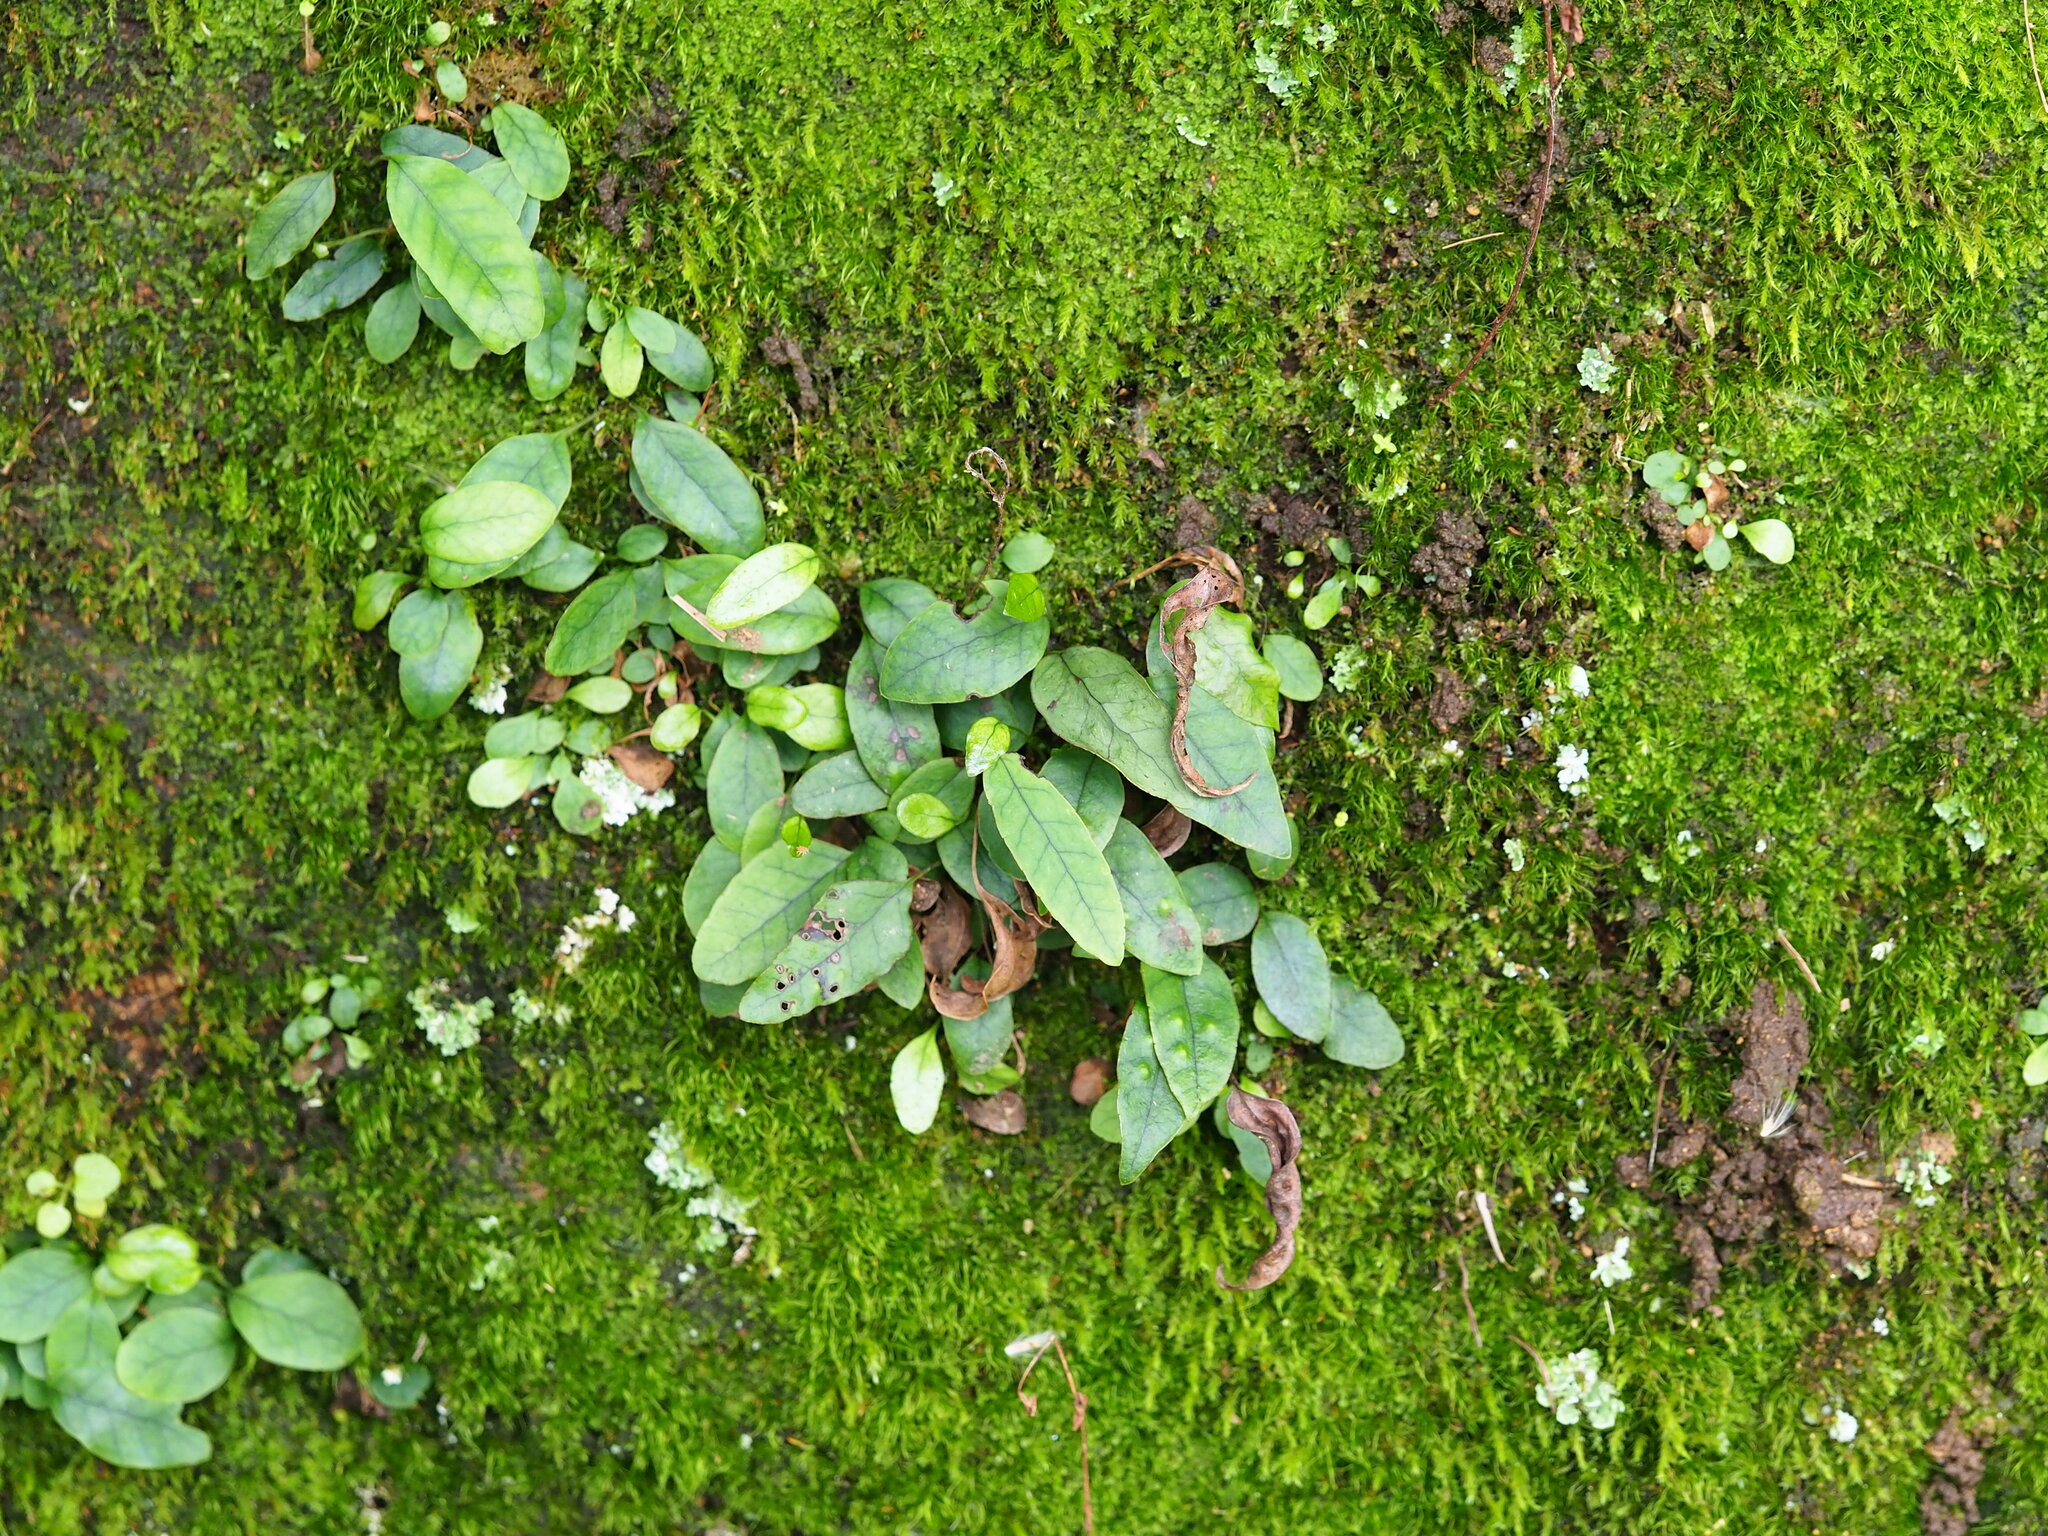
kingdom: Plantae
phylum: Tracheophyta
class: Polypodiopsida
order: Polypodiales
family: Polypodiaceae
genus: Selliguea
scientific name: Selliguea hastata
